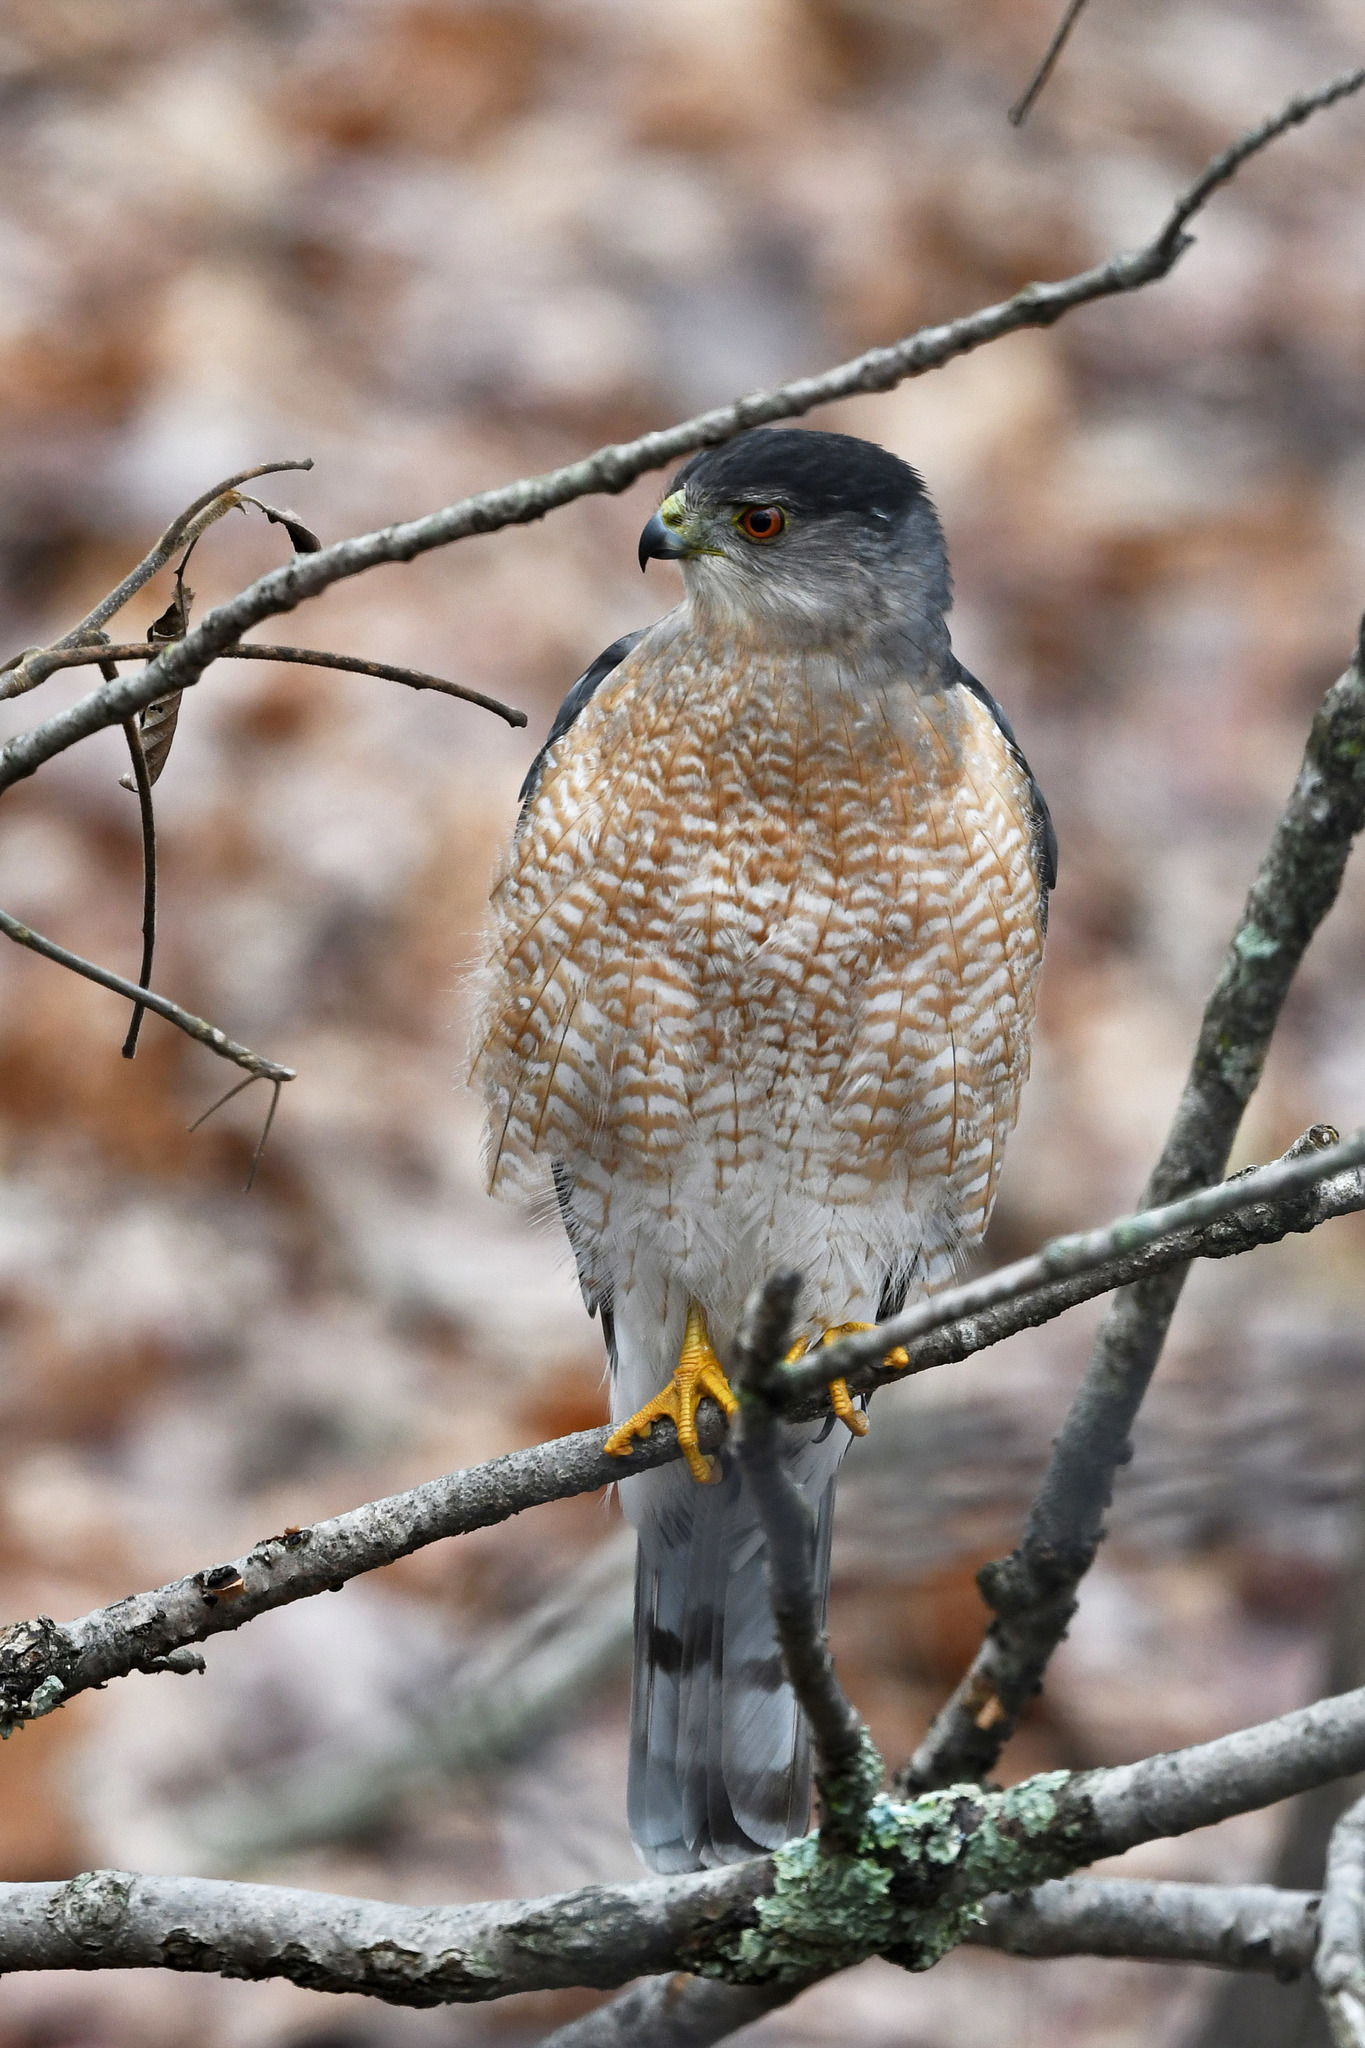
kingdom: Animalia
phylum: Chordata
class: Aves
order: Accipitriformes
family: Accipitridae
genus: Accipiter
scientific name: Accipiter cooperii
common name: Cooper's hawk
